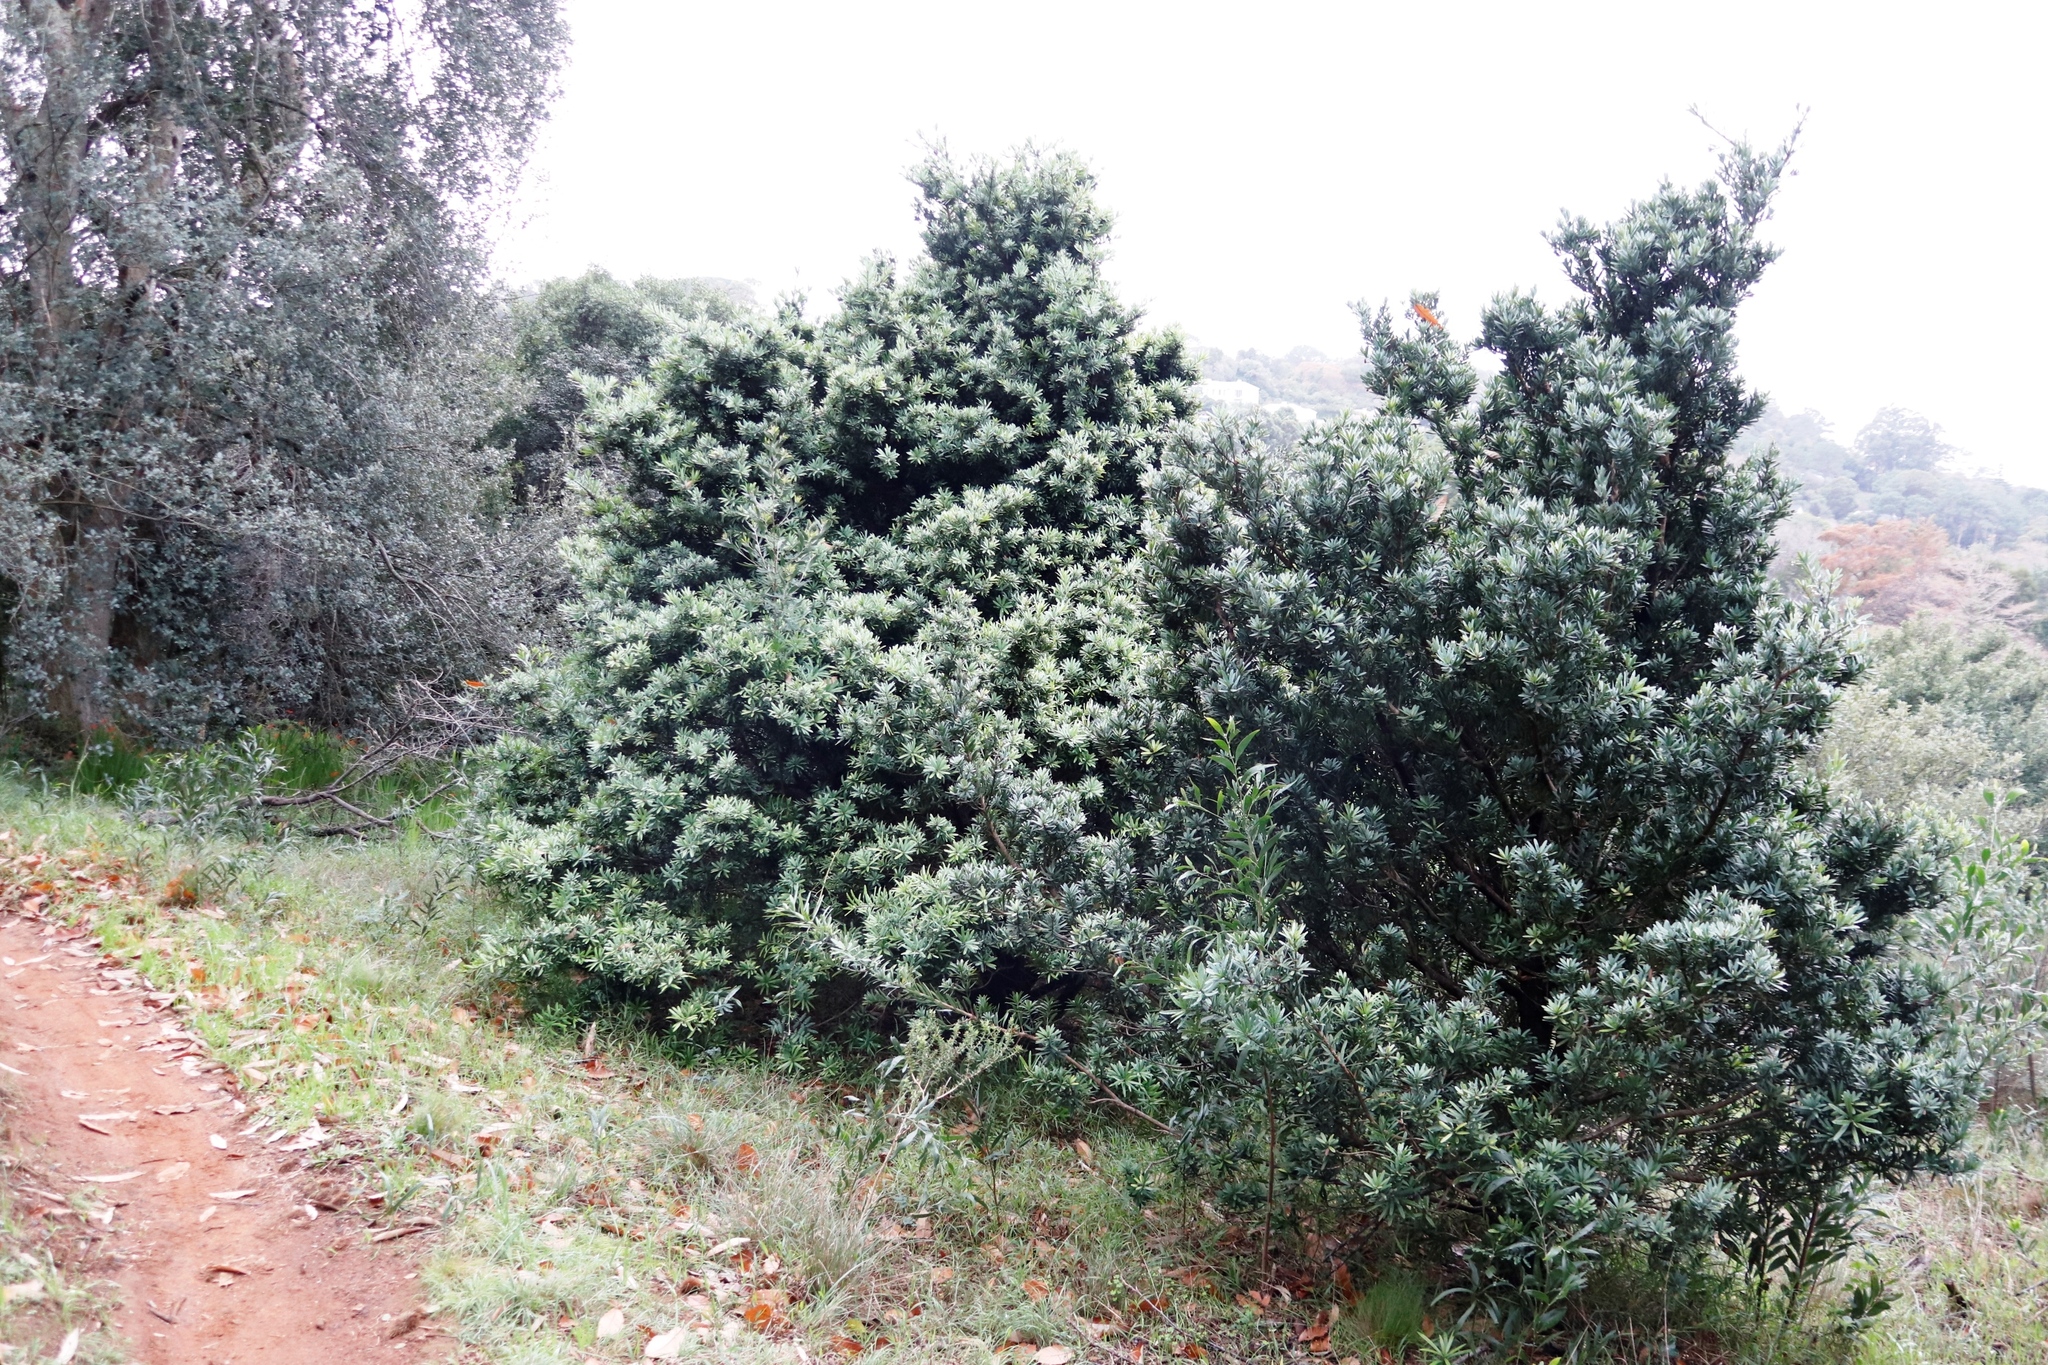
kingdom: Plantae
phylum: Tracheophyta
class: Pinopsida
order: Pinales
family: Podocarpaceae
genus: Podocarpus
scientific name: Podocarpus latifolius
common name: True yellowwood
